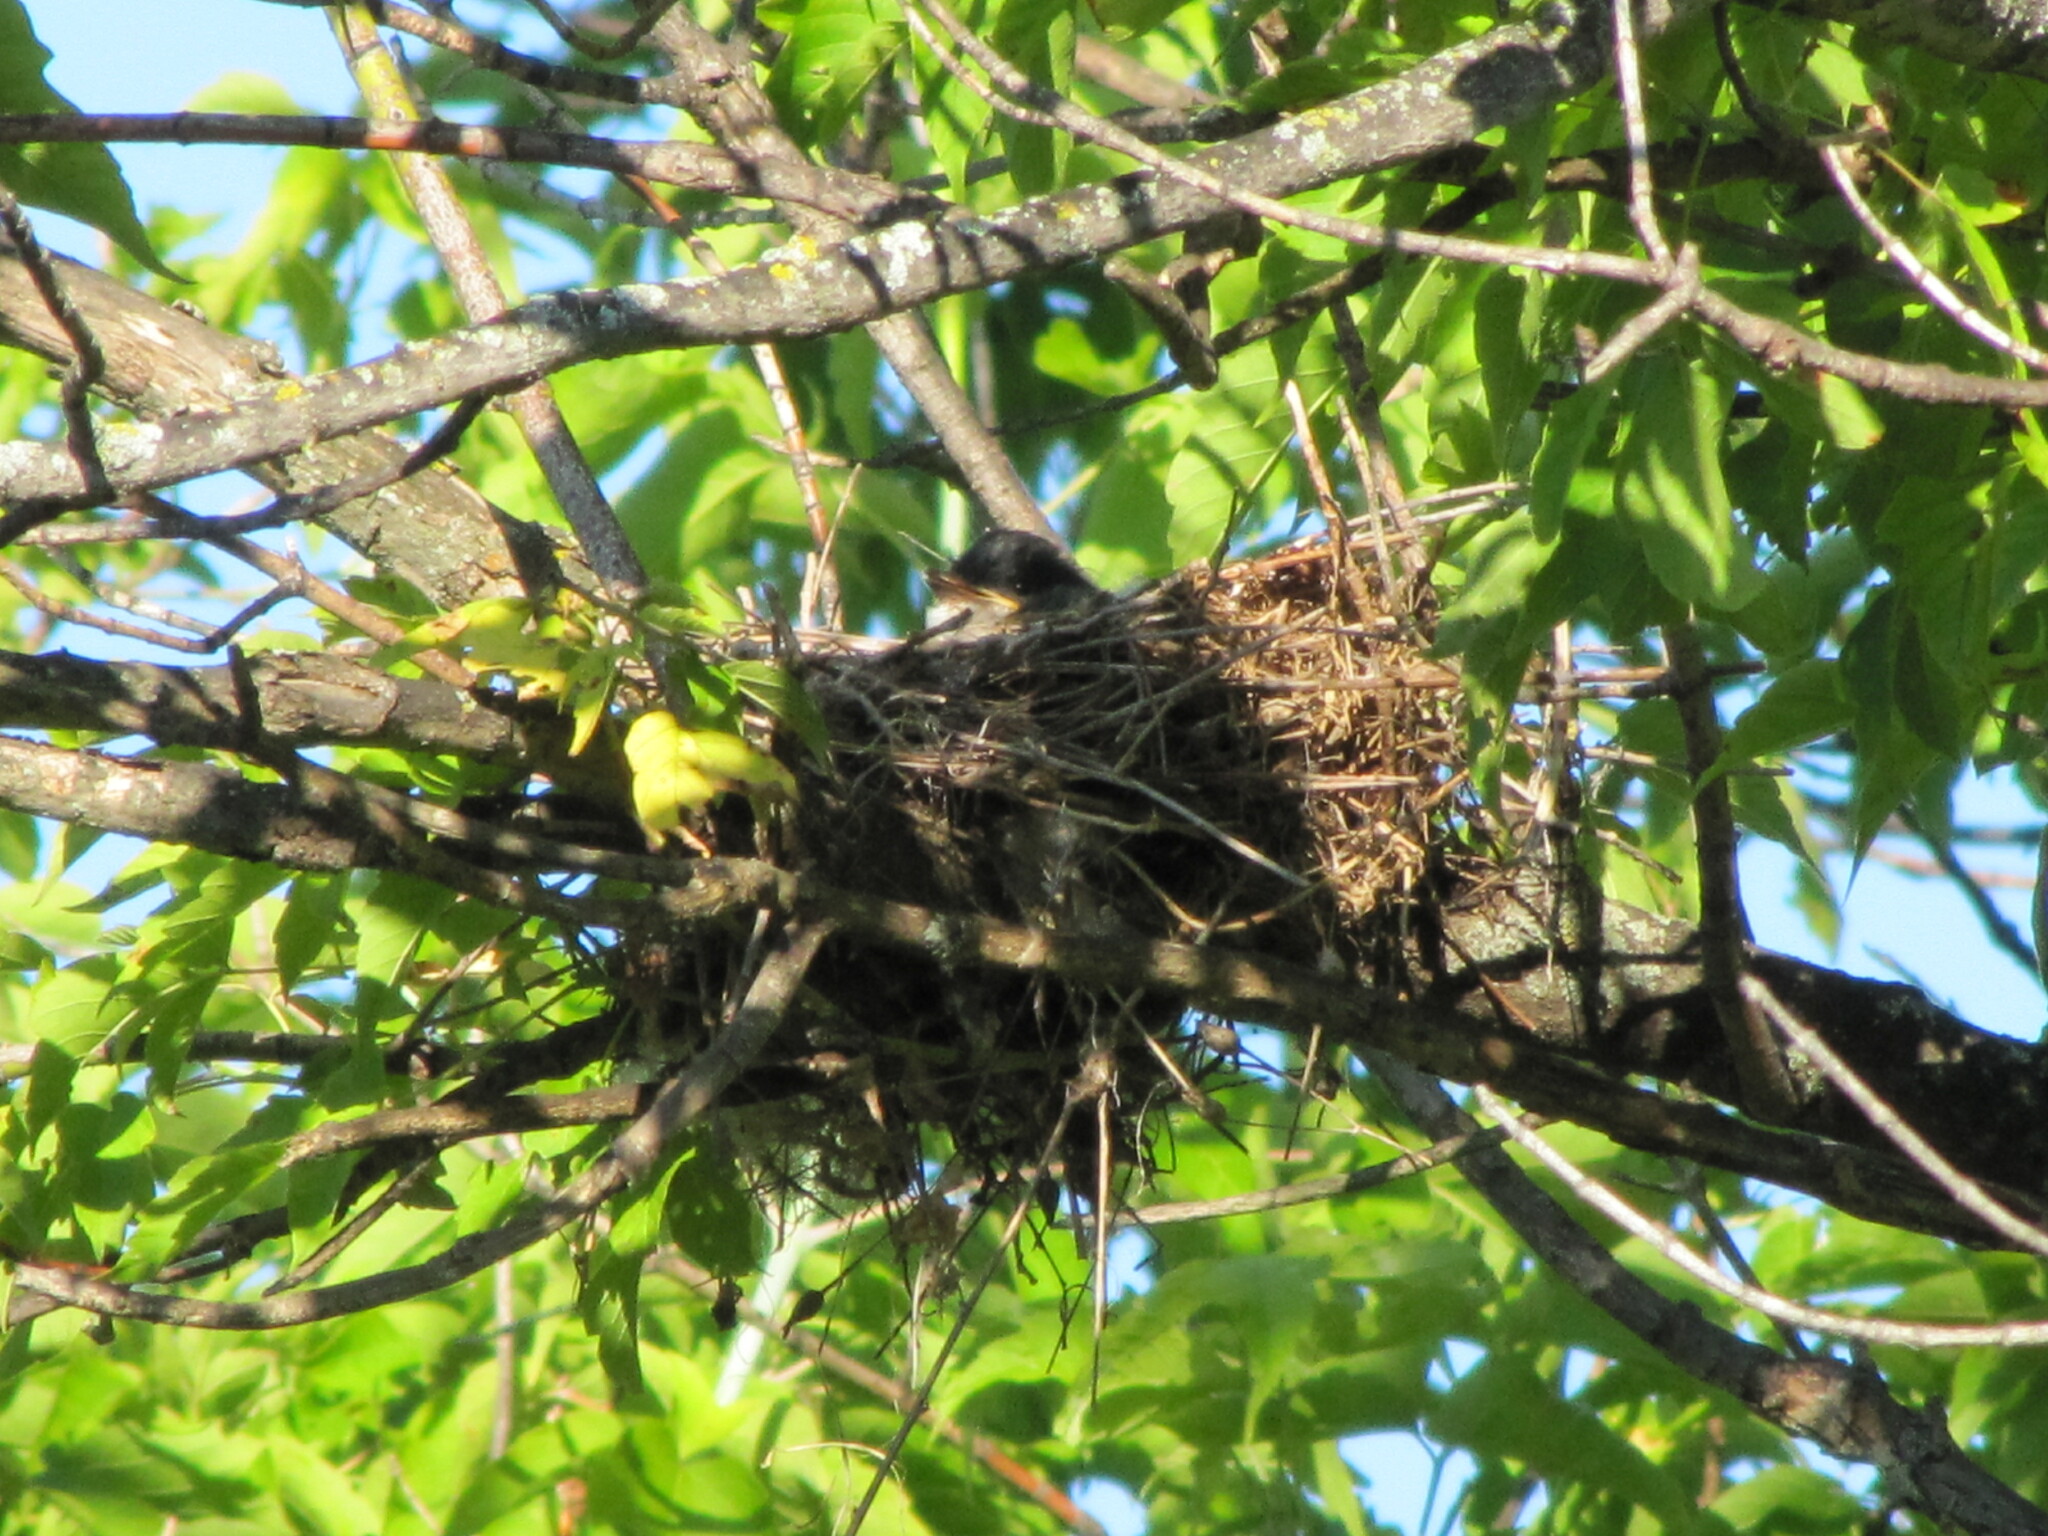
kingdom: Animalia
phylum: Chordata
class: Aves
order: Passeriformes
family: Tyrannidae
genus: Tyrannus
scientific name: Tyrannus tyrannus
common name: Eastern kingbird
